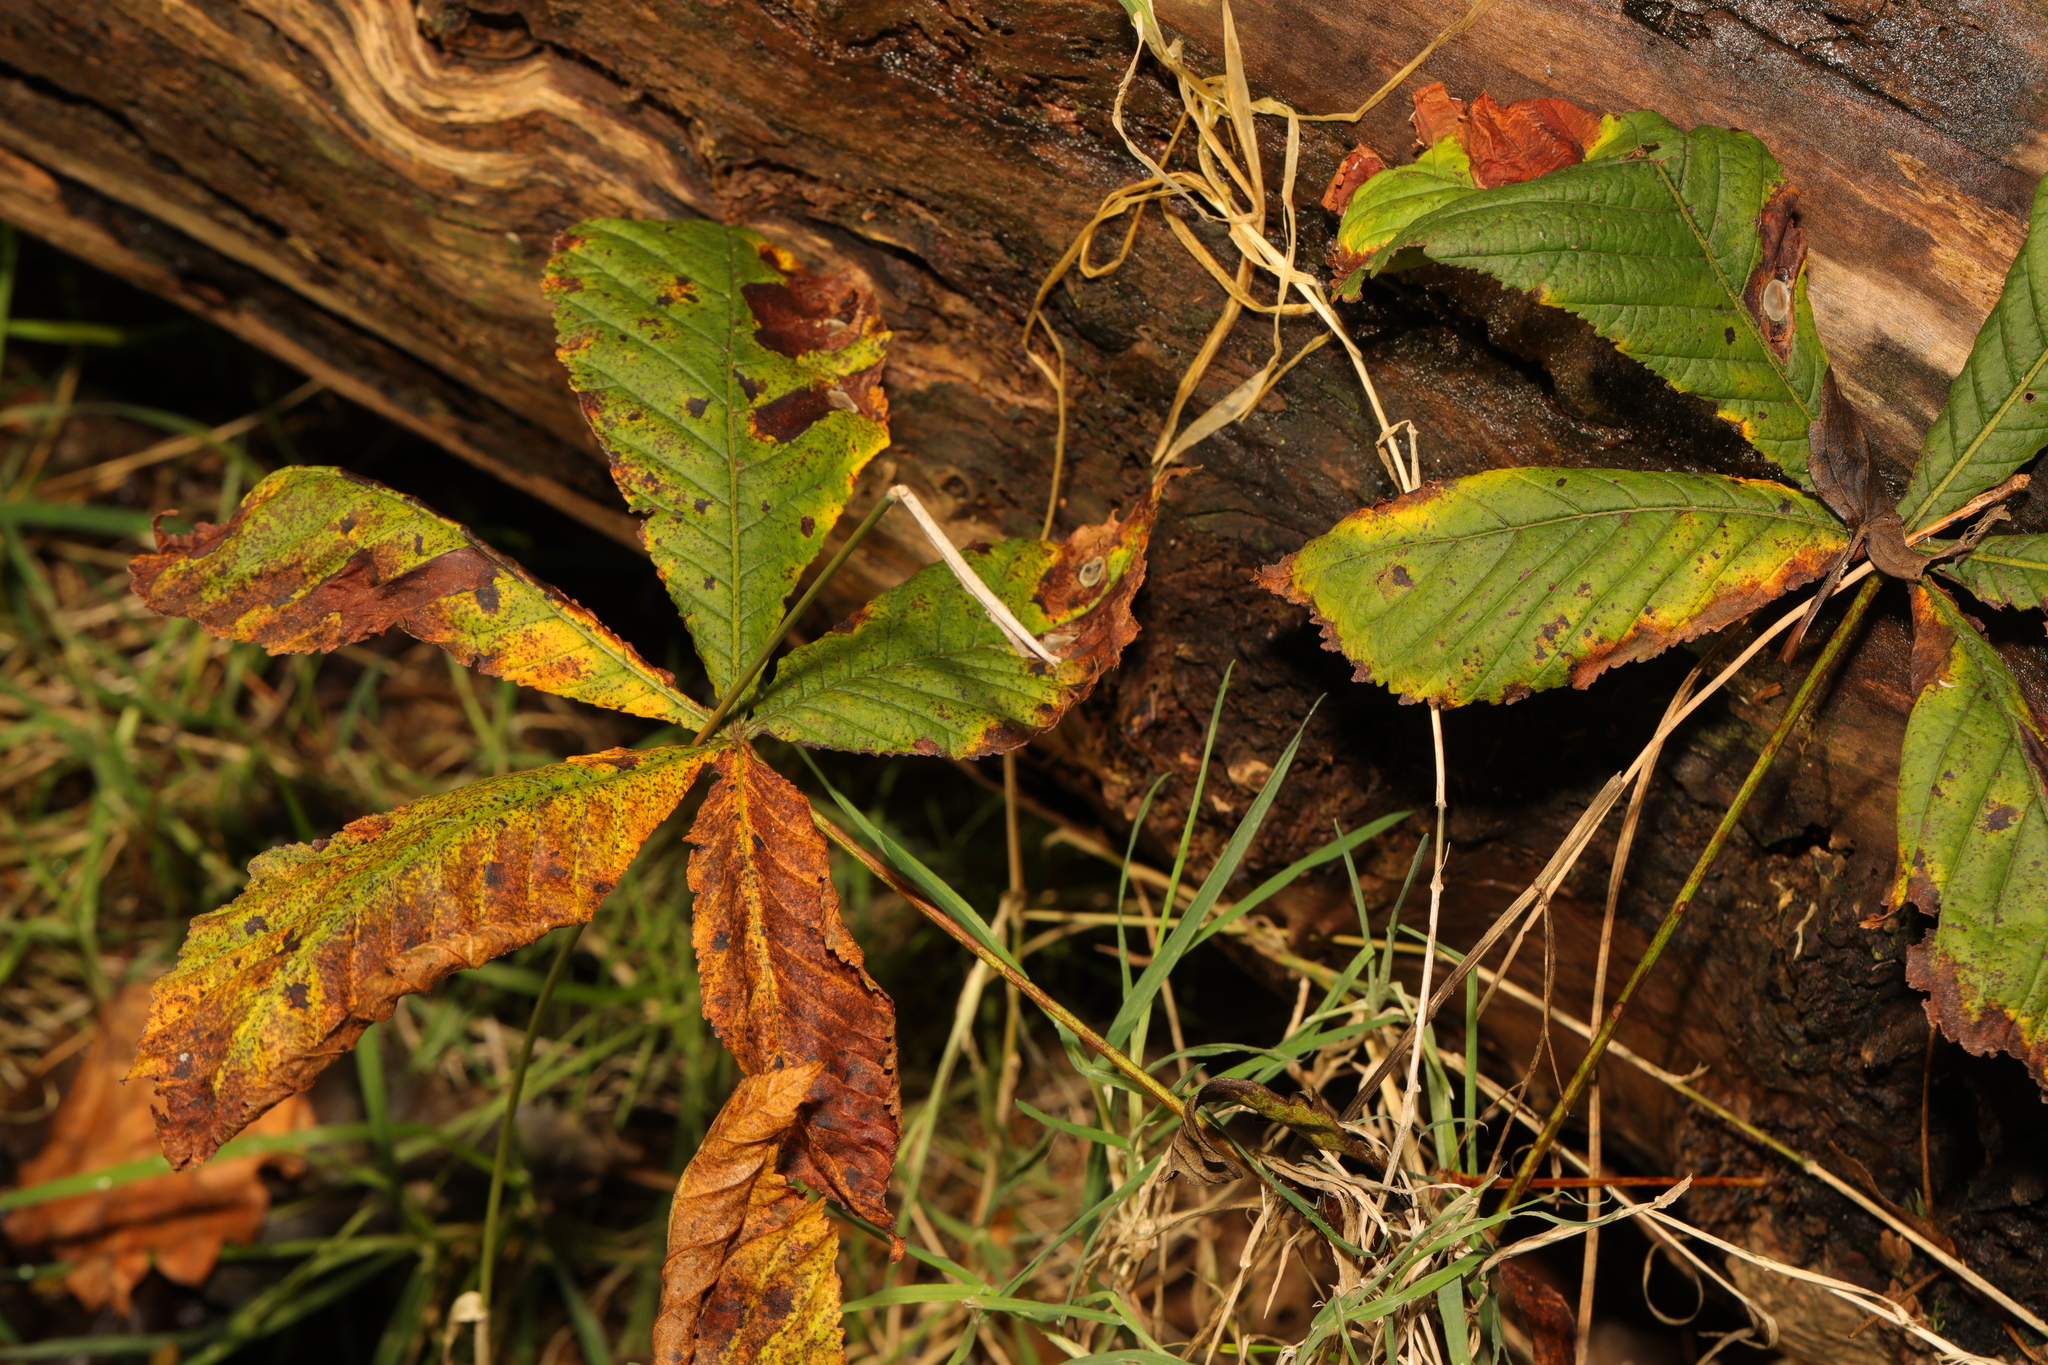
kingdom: Plantae
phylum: Tracheophyta
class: Magnoliopsida
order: Sapindales
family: Sapindaceae
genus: Aesculus
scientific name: Aesculus hippocastanum
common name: Horse-chestnut
